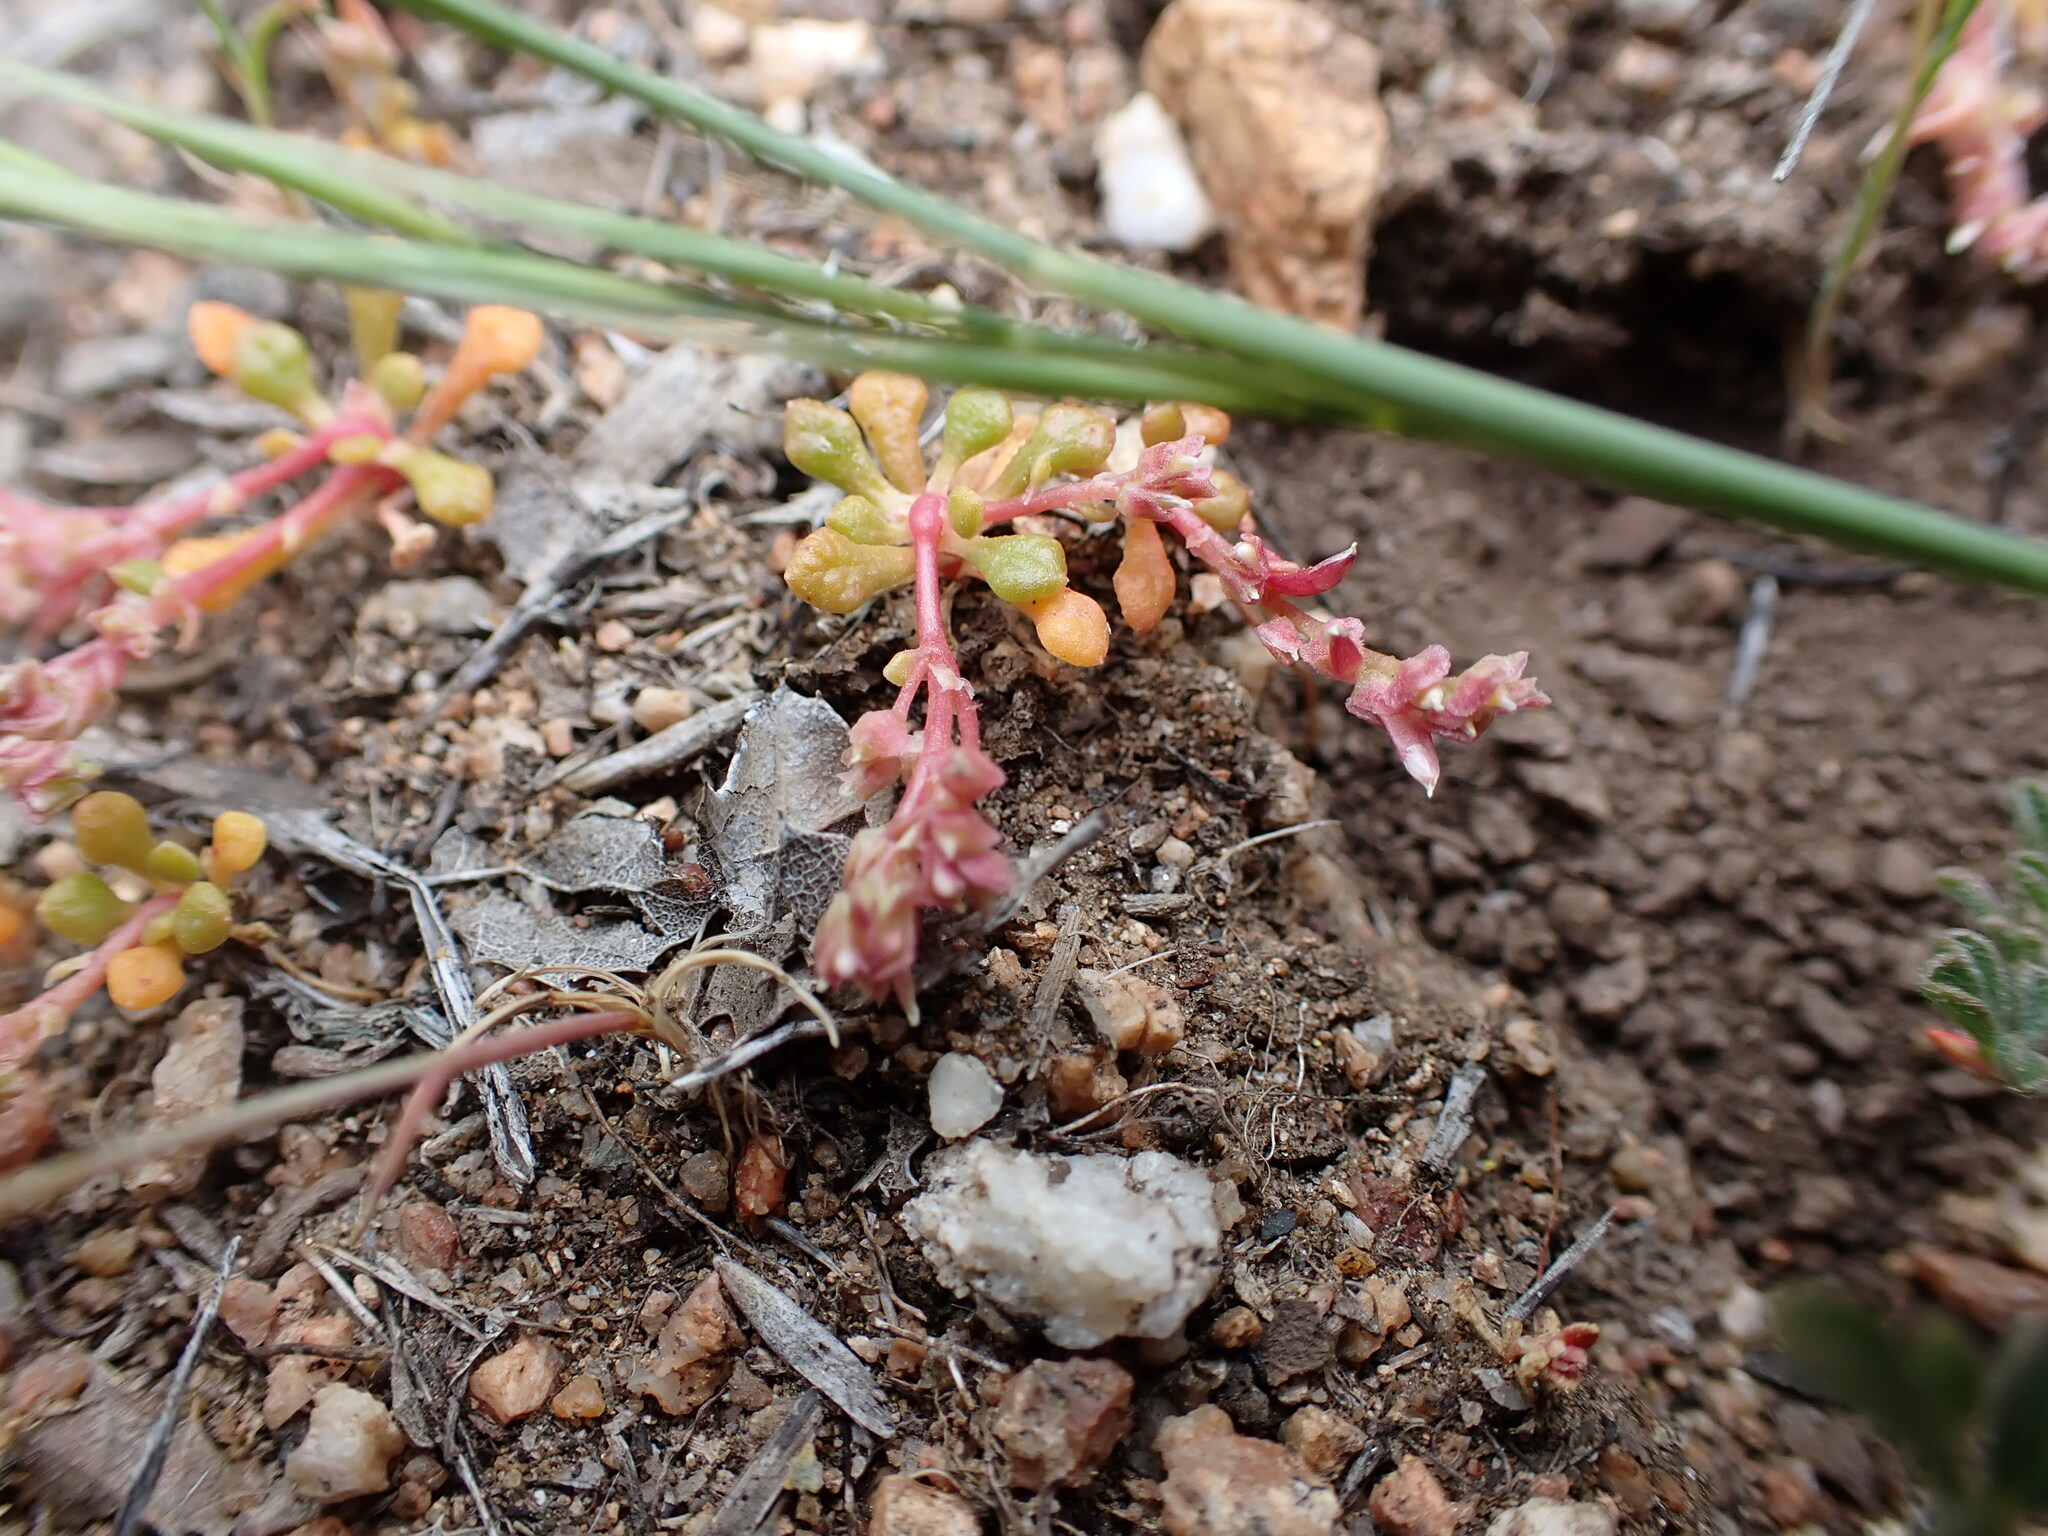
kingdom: Plantae
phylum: Tracheophyta
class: Magnoliopsida
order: Caryophyllales
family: Montiaceae
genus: Calyptridium
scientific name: Calyptridium monandrum
